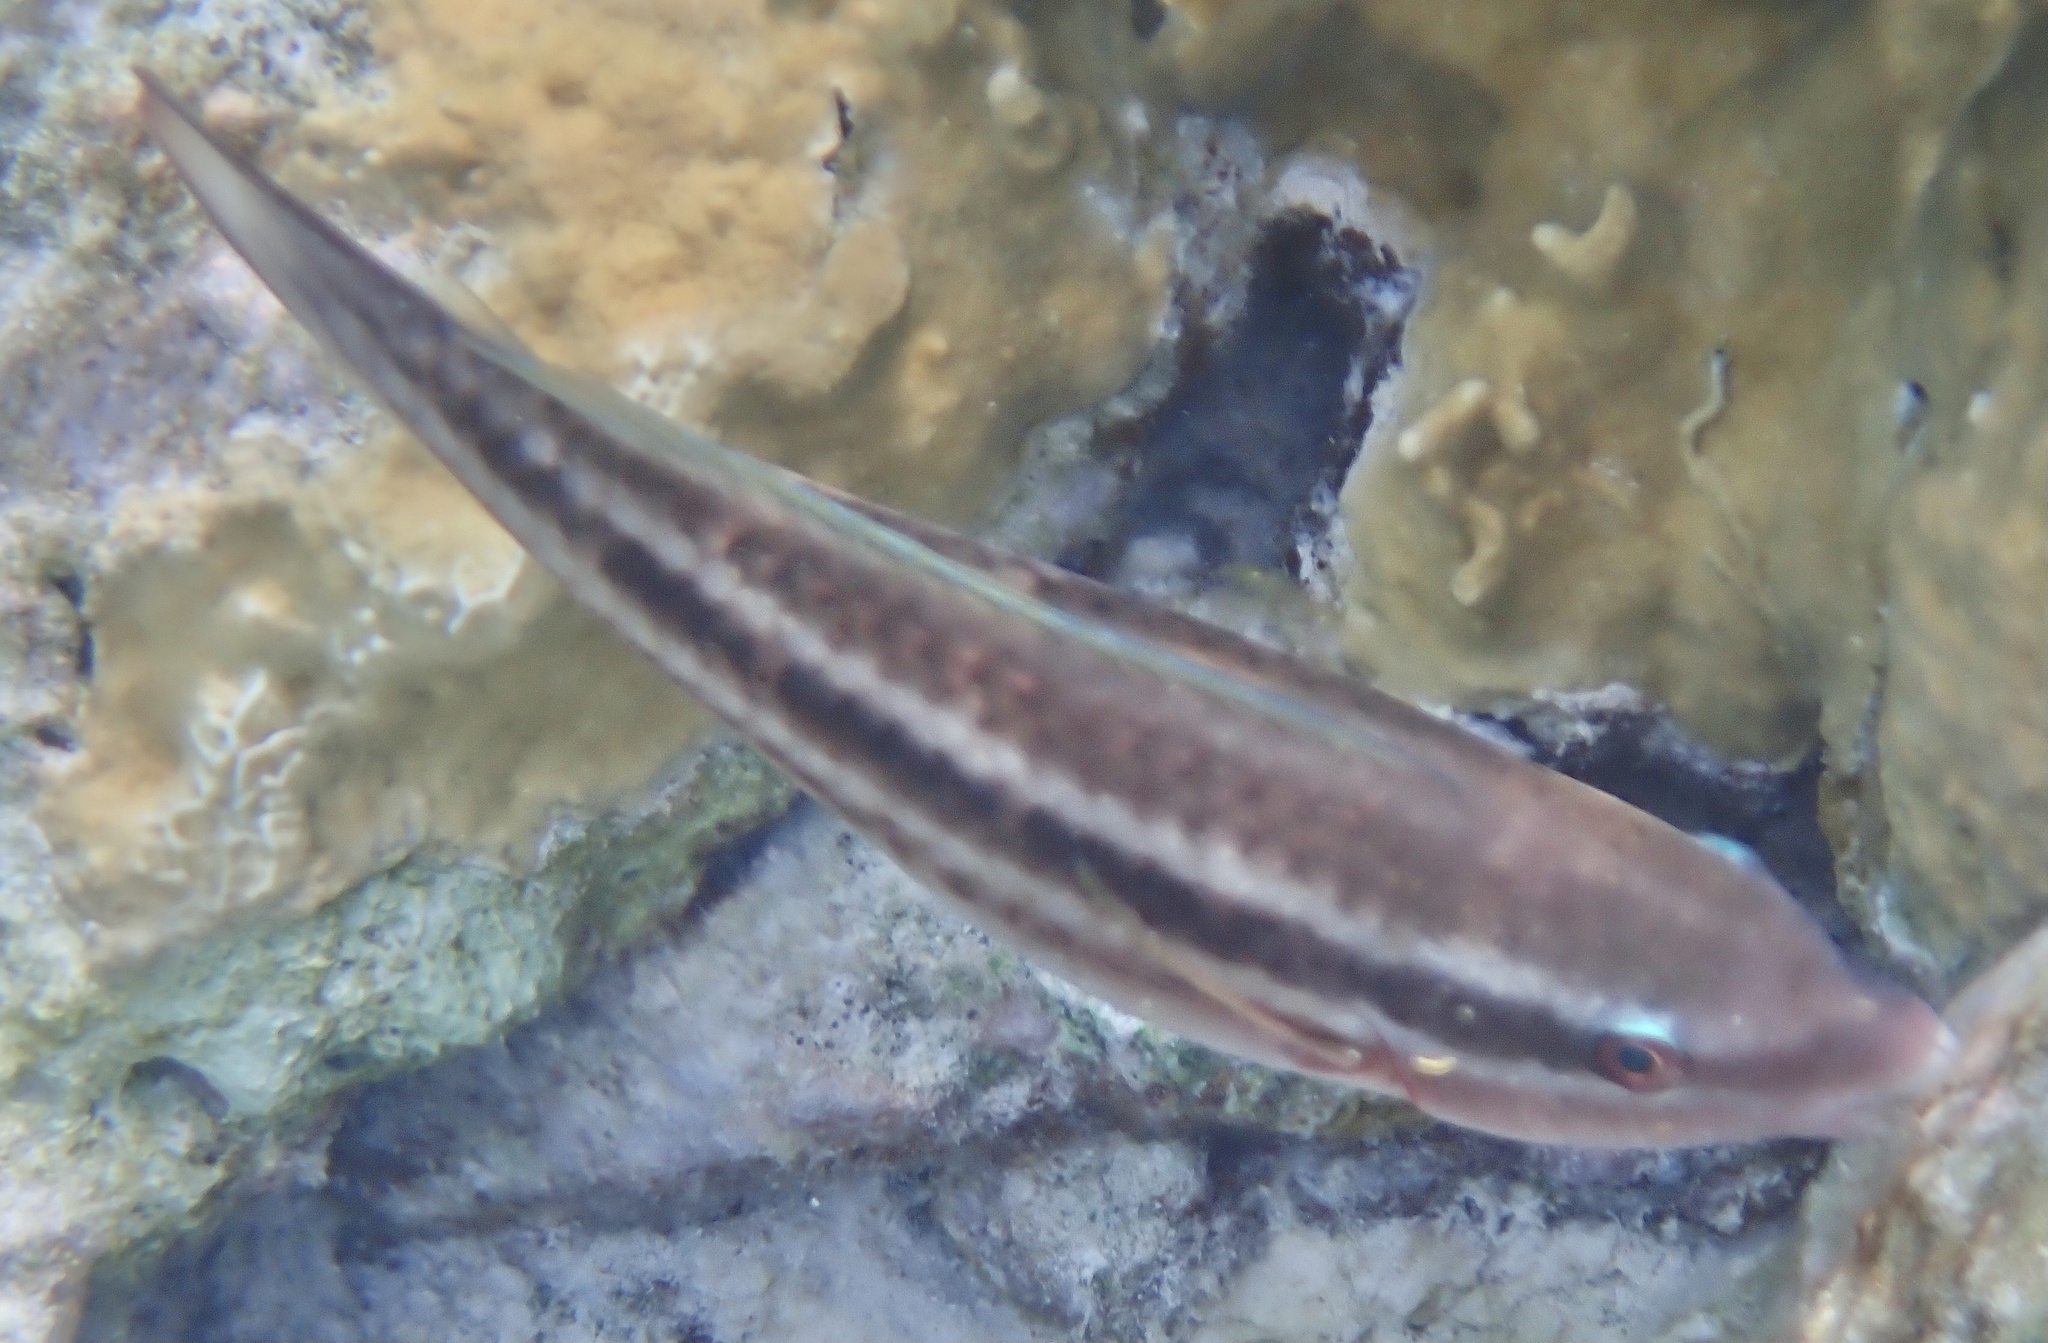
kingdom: Animalia
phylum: Chordata
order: Perciformes
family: Scaridae
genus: Scarus
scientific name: Scarus iseri
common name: Striped parrotfish
